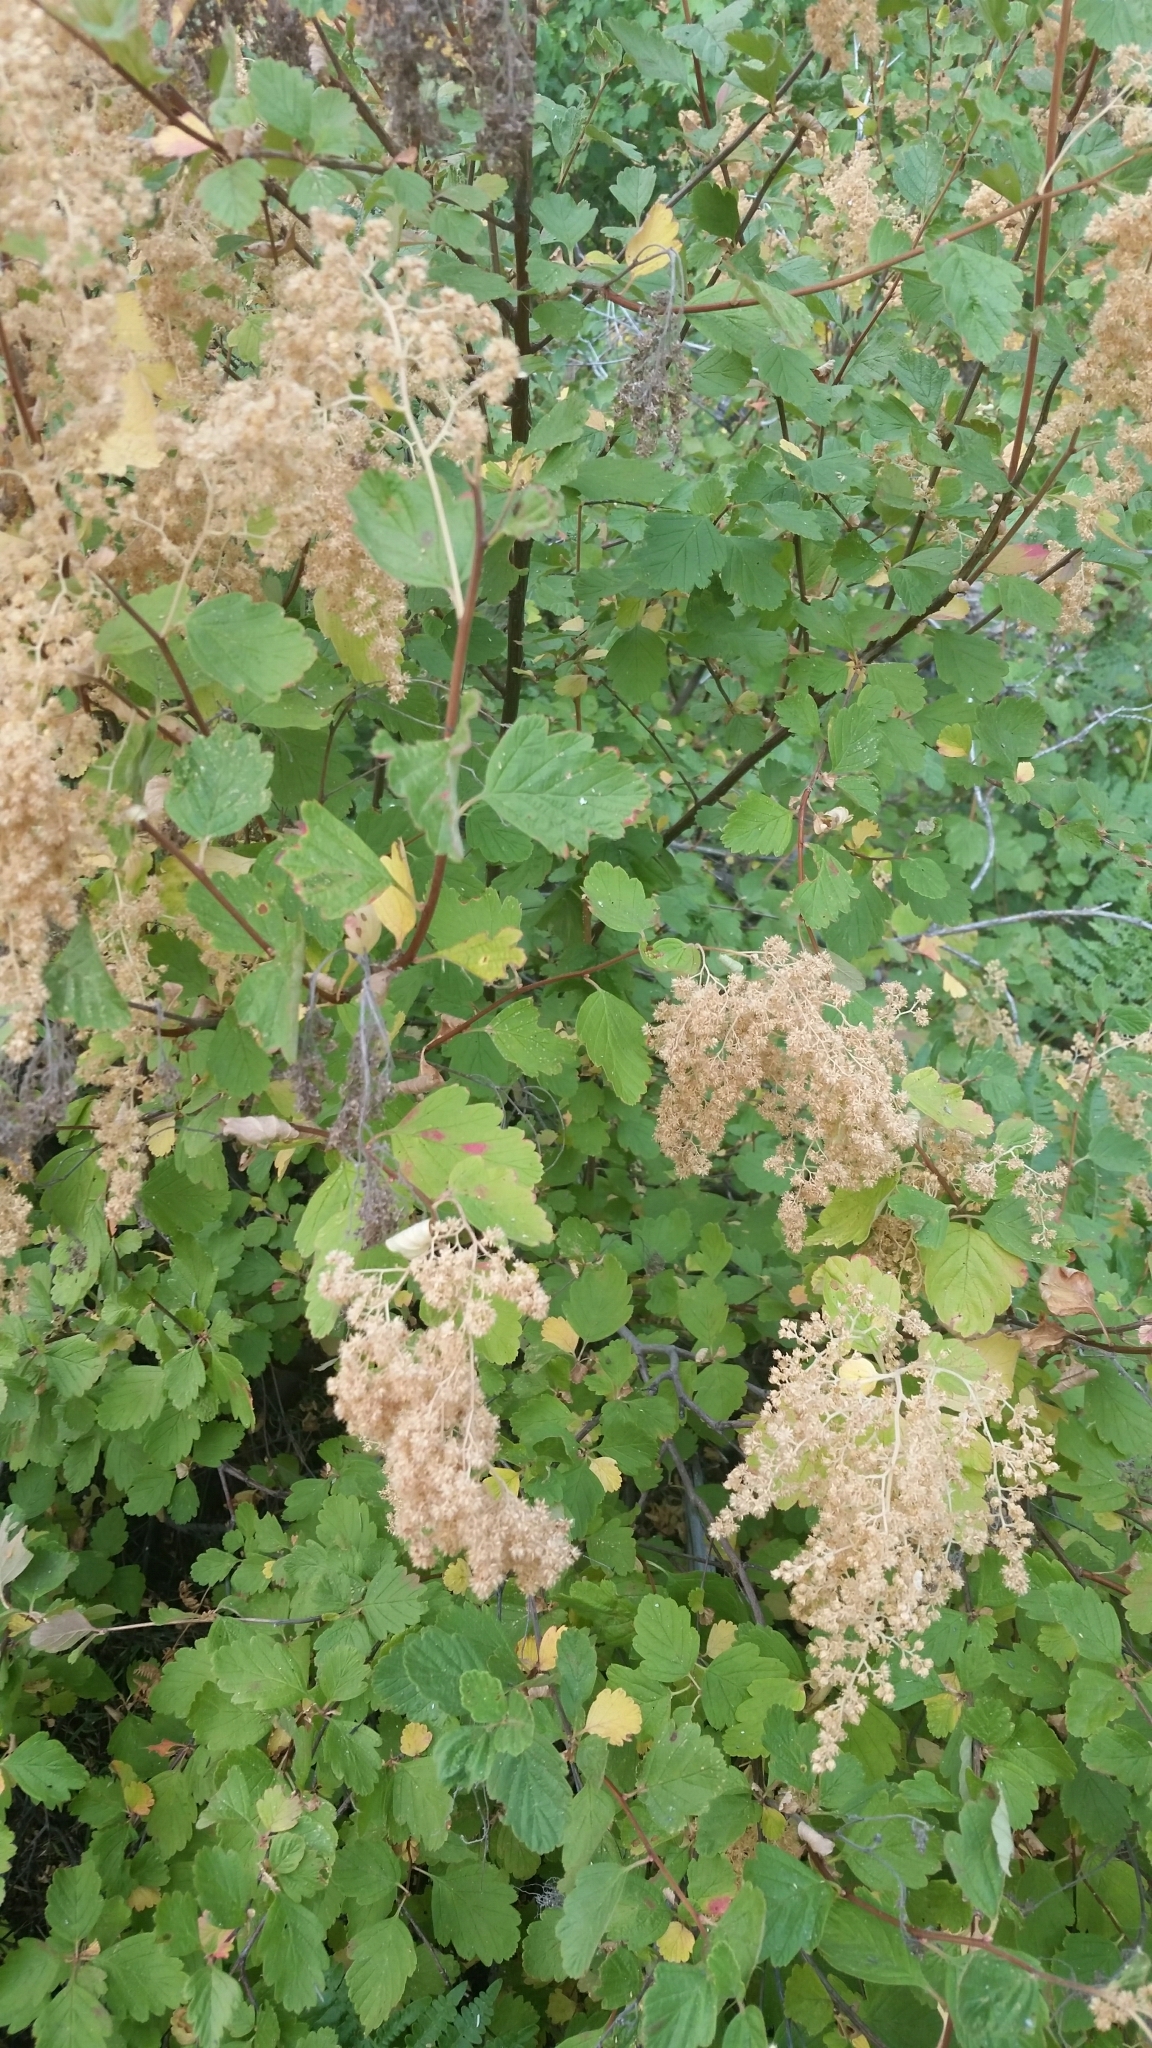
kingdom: Plantae
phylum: Tracheophyta
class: Magnoliopsida
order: Rosales
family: Rosaceae
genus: Holodiscus
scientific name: Holodiscus discolor
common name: Oceanspray
